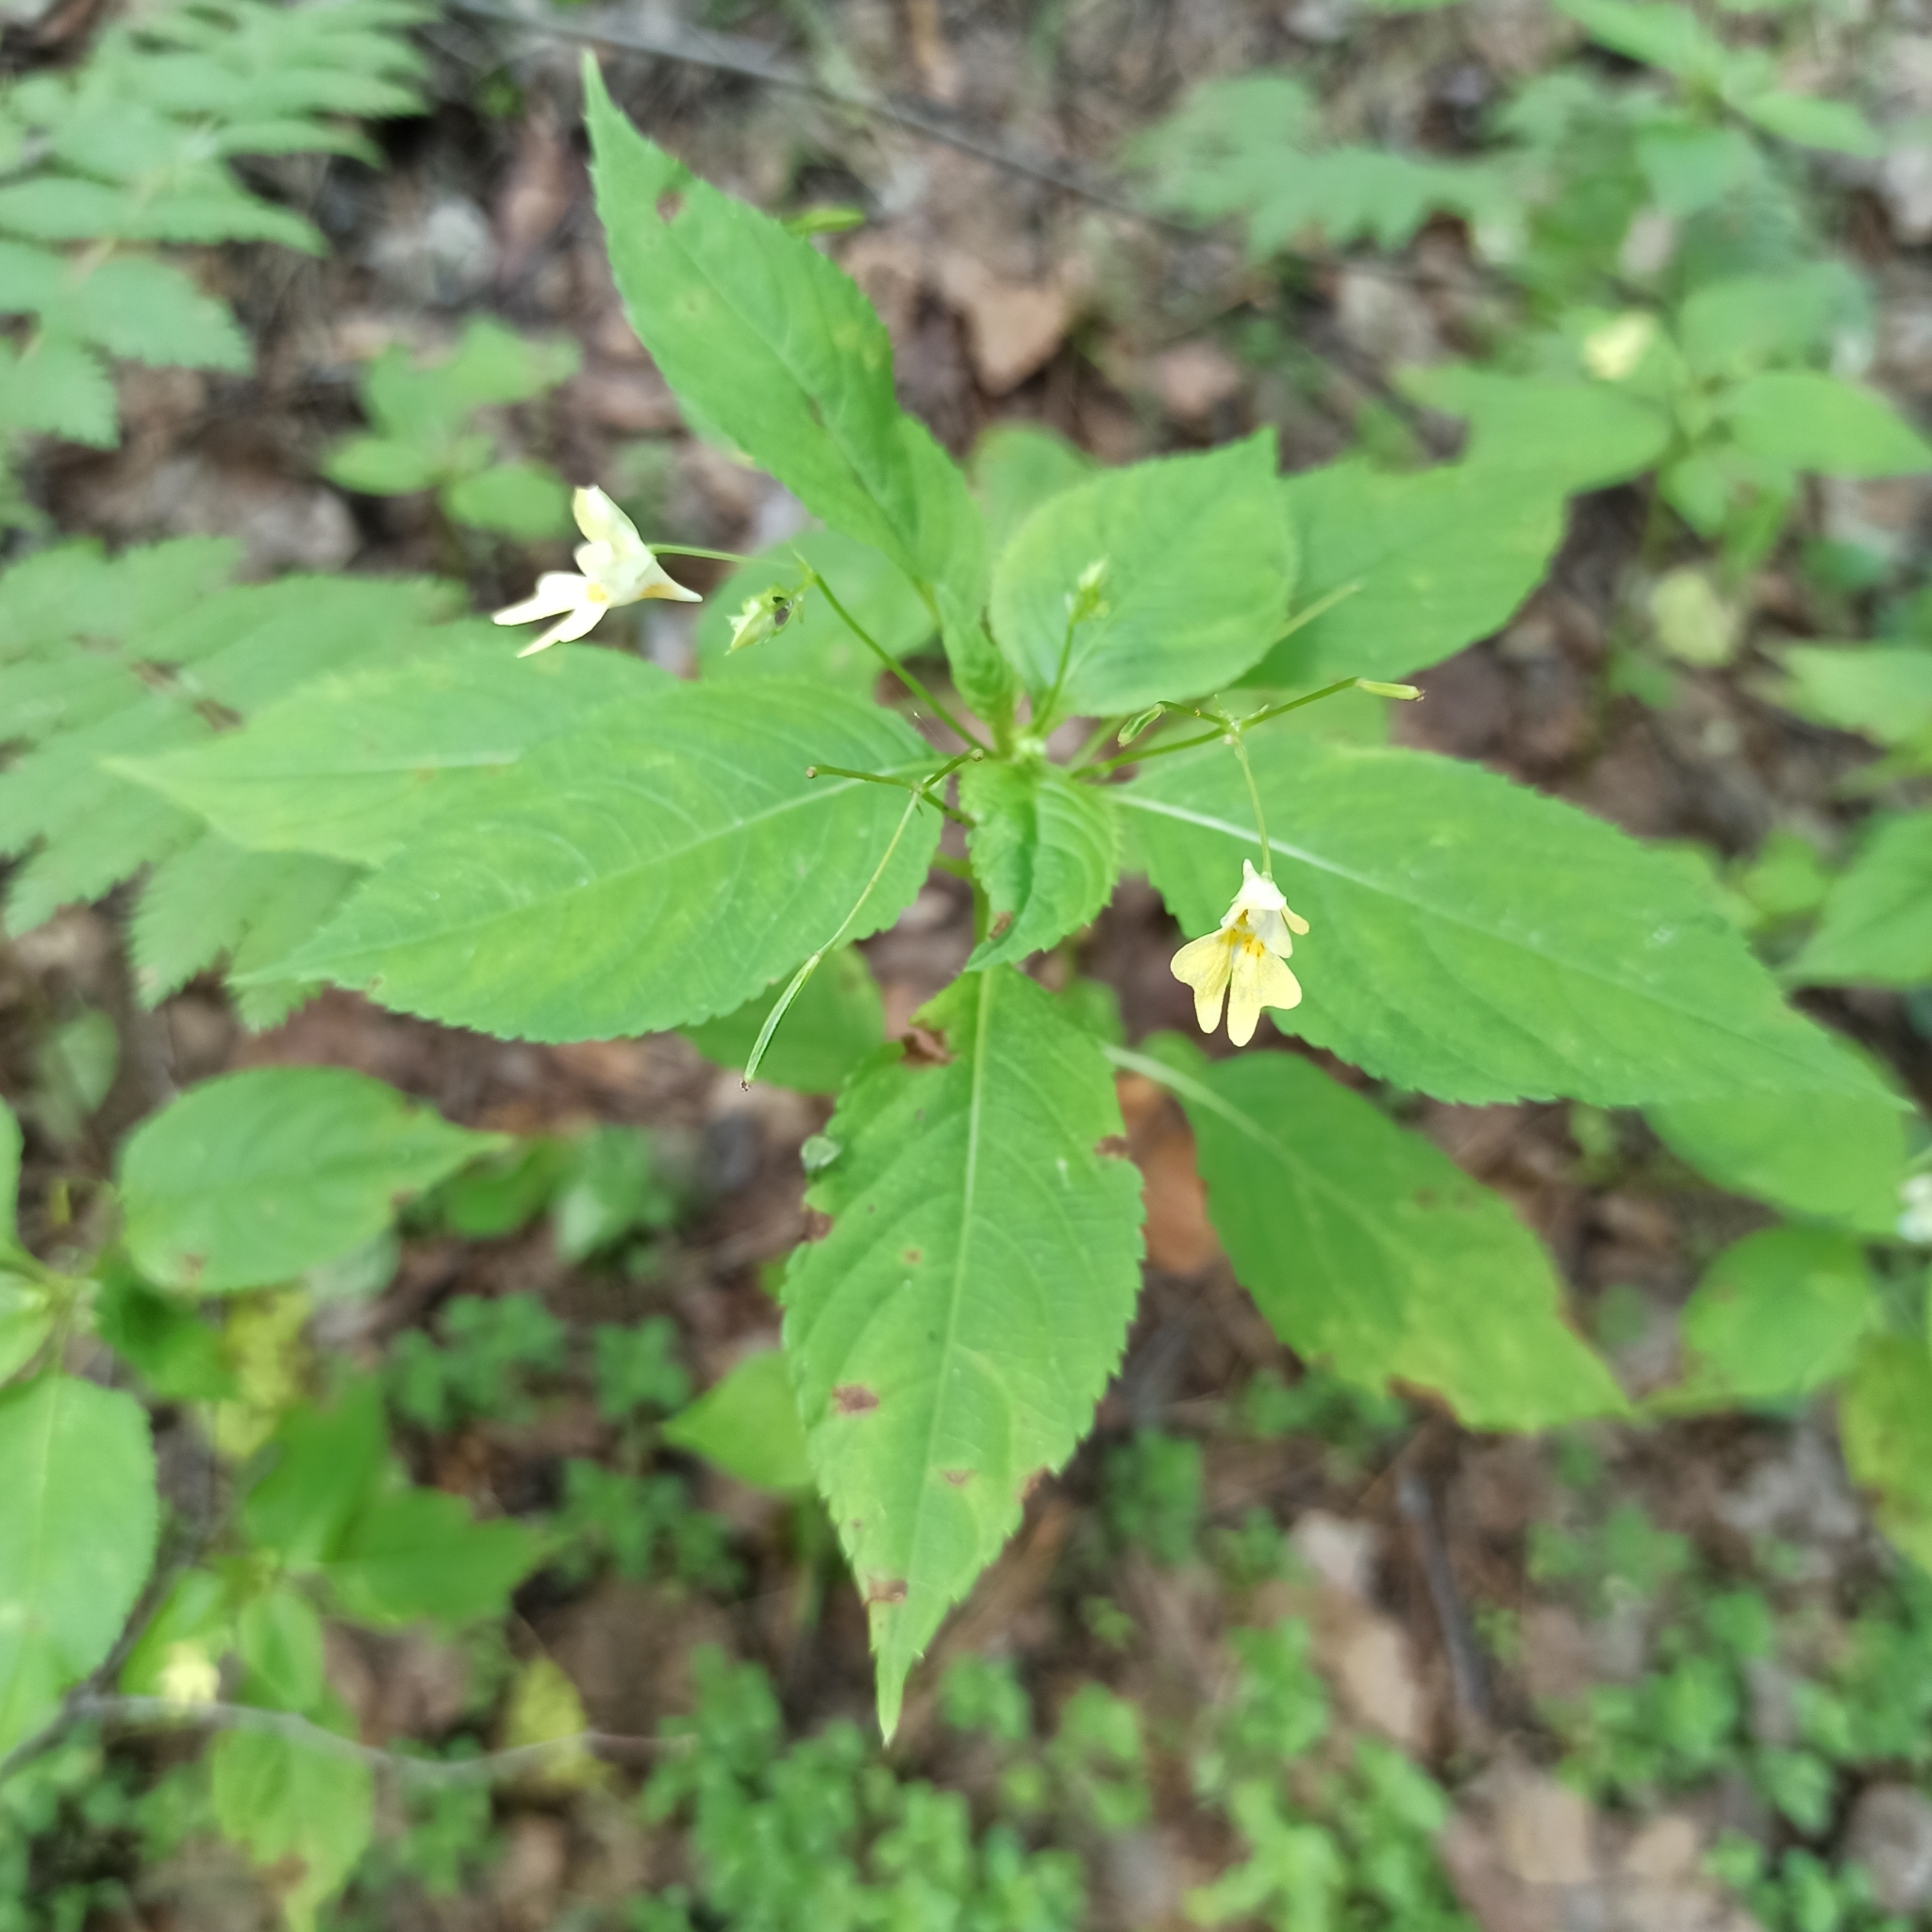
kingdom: Plantae
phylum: Tracheophyta
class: Magnoliopsida
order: Ericales
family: Balsaminaceae
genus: Impatiens
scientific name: Impatiens parviflora
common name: Small balsam
